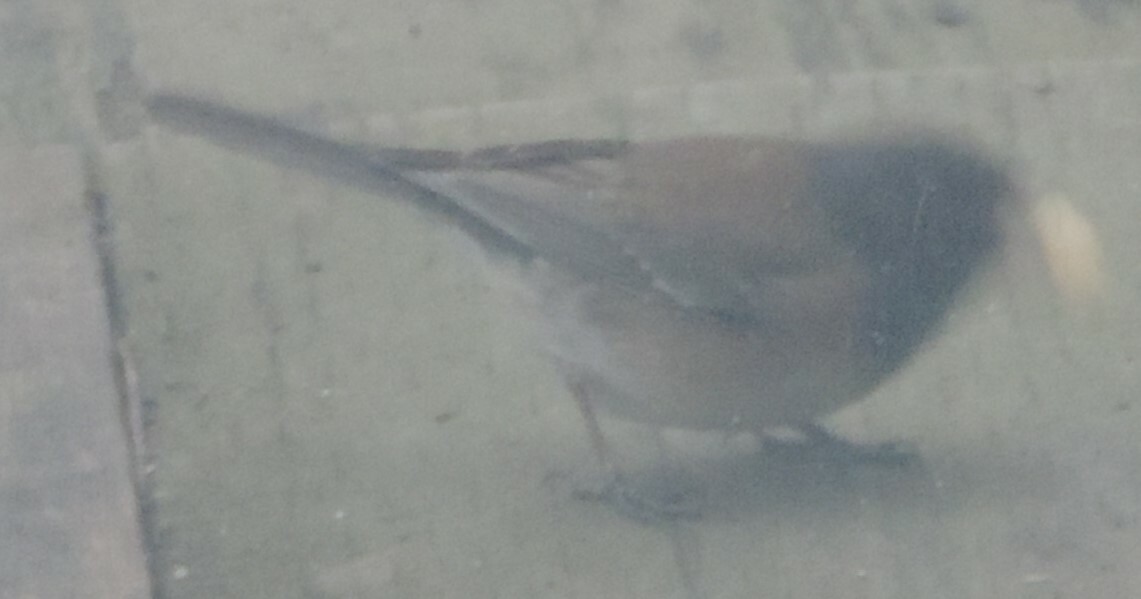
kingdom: Animalia
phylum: Chordata
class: Aves
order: Passeriformes
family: Passerellidae
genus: Junco
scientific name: Junco hyemalis
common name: Dark-eyed junco
